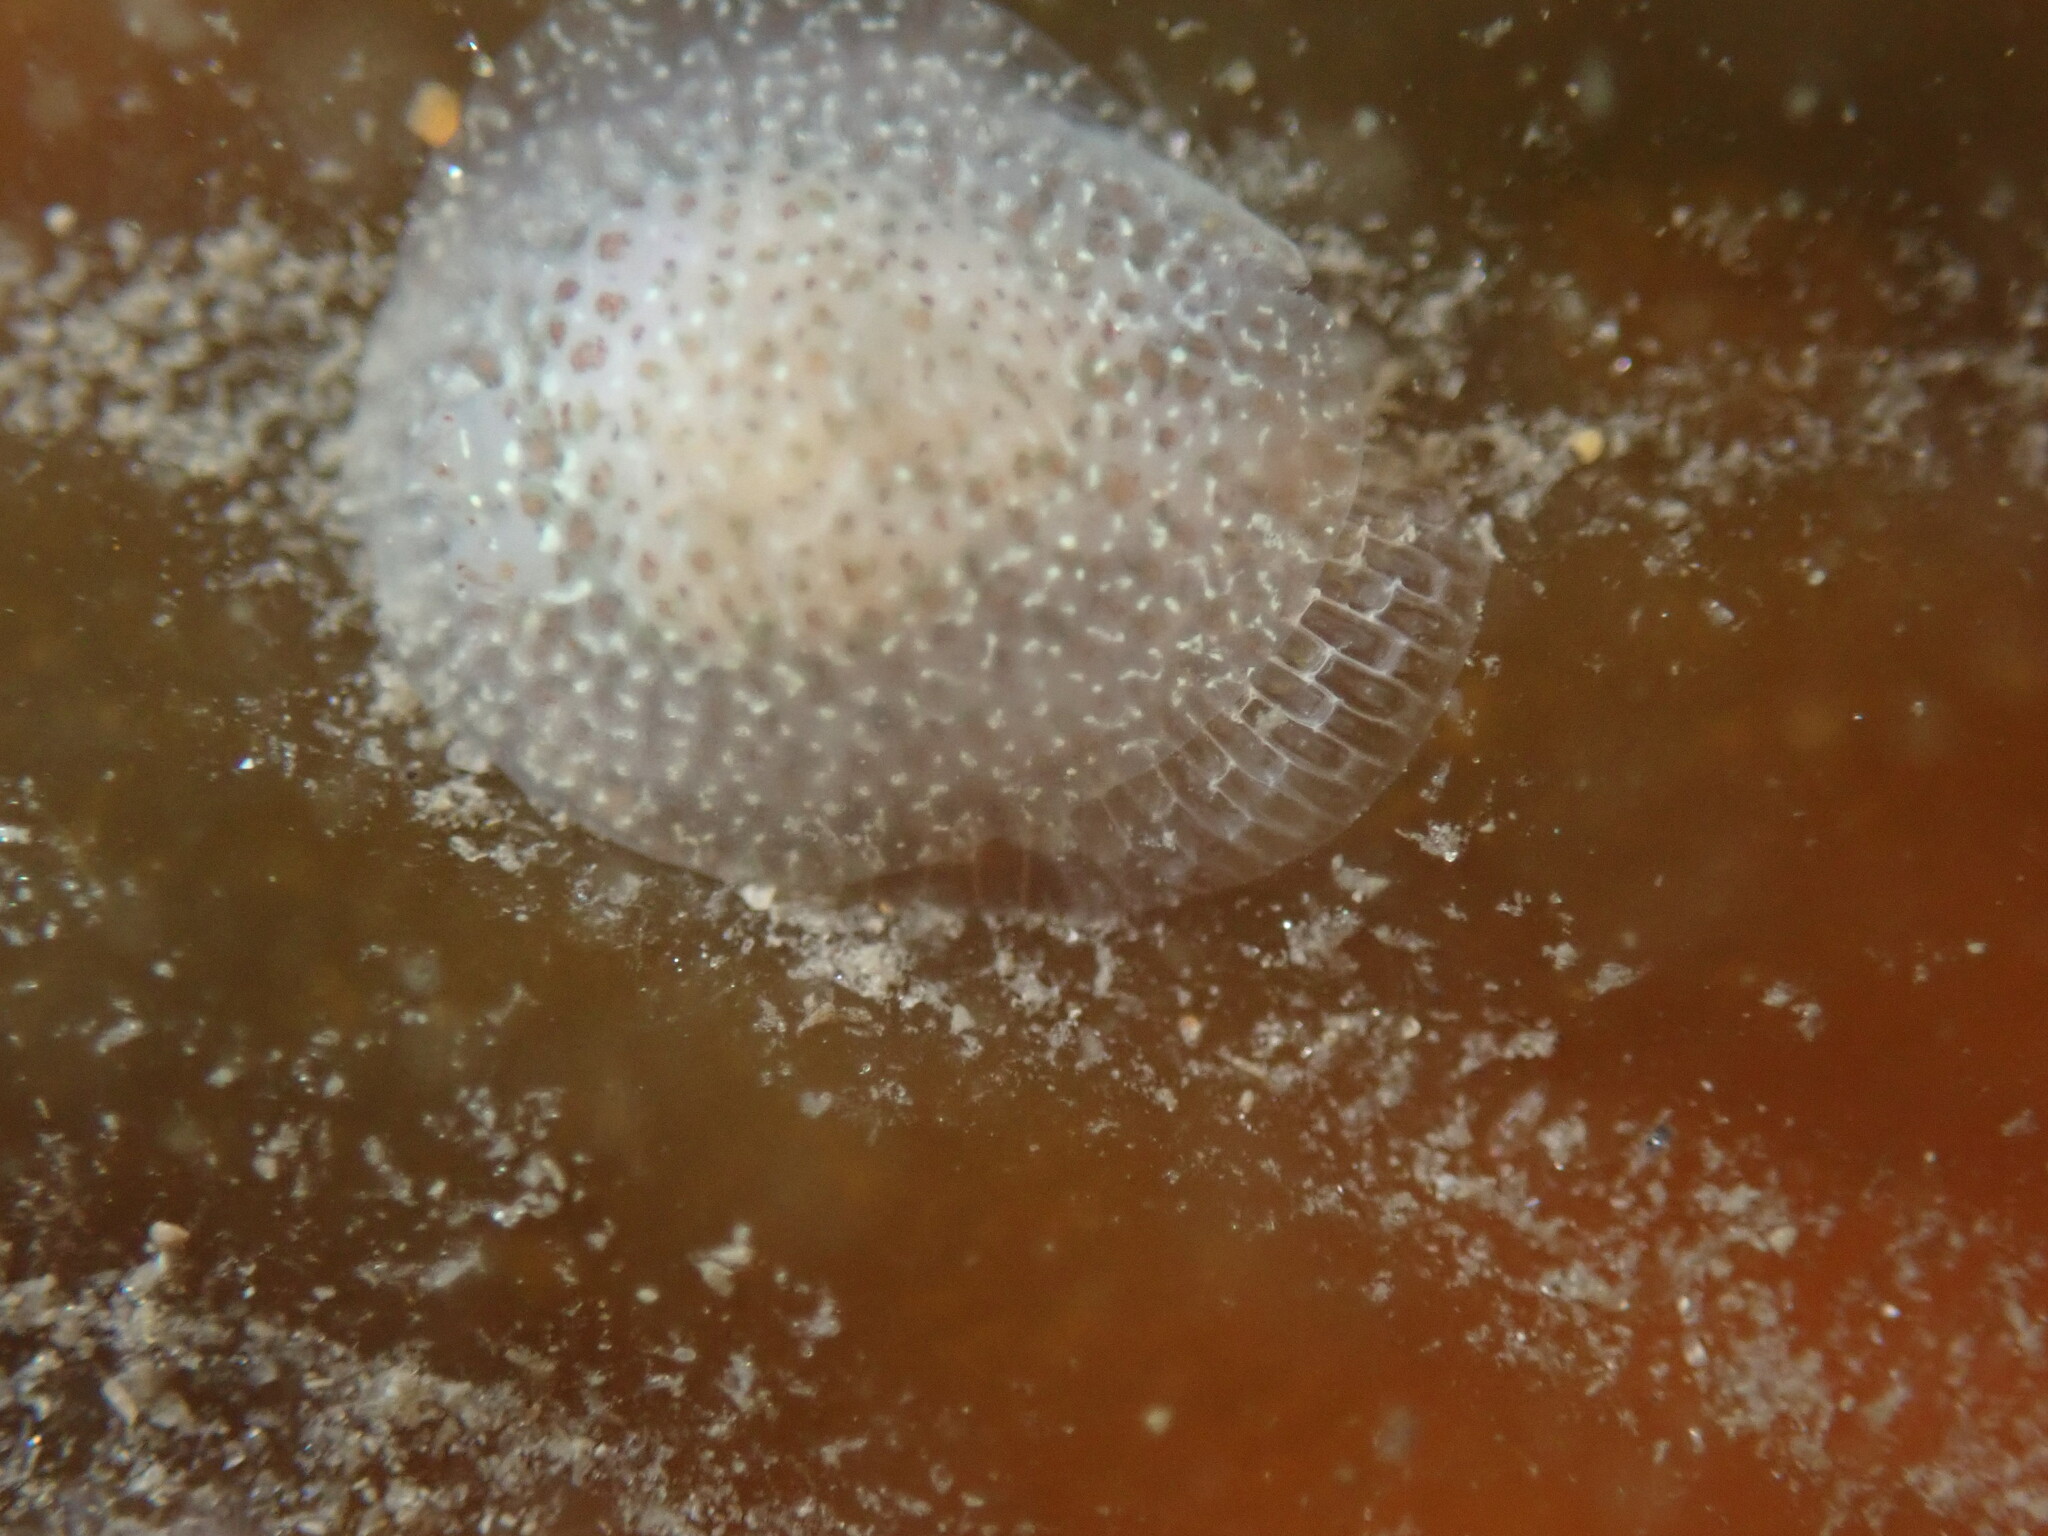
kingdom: Animalia
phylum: Mollusca
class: Gastropoda
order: Nudibranchia
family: Corambidae
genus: Corambe
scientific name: Corambe pacifica
